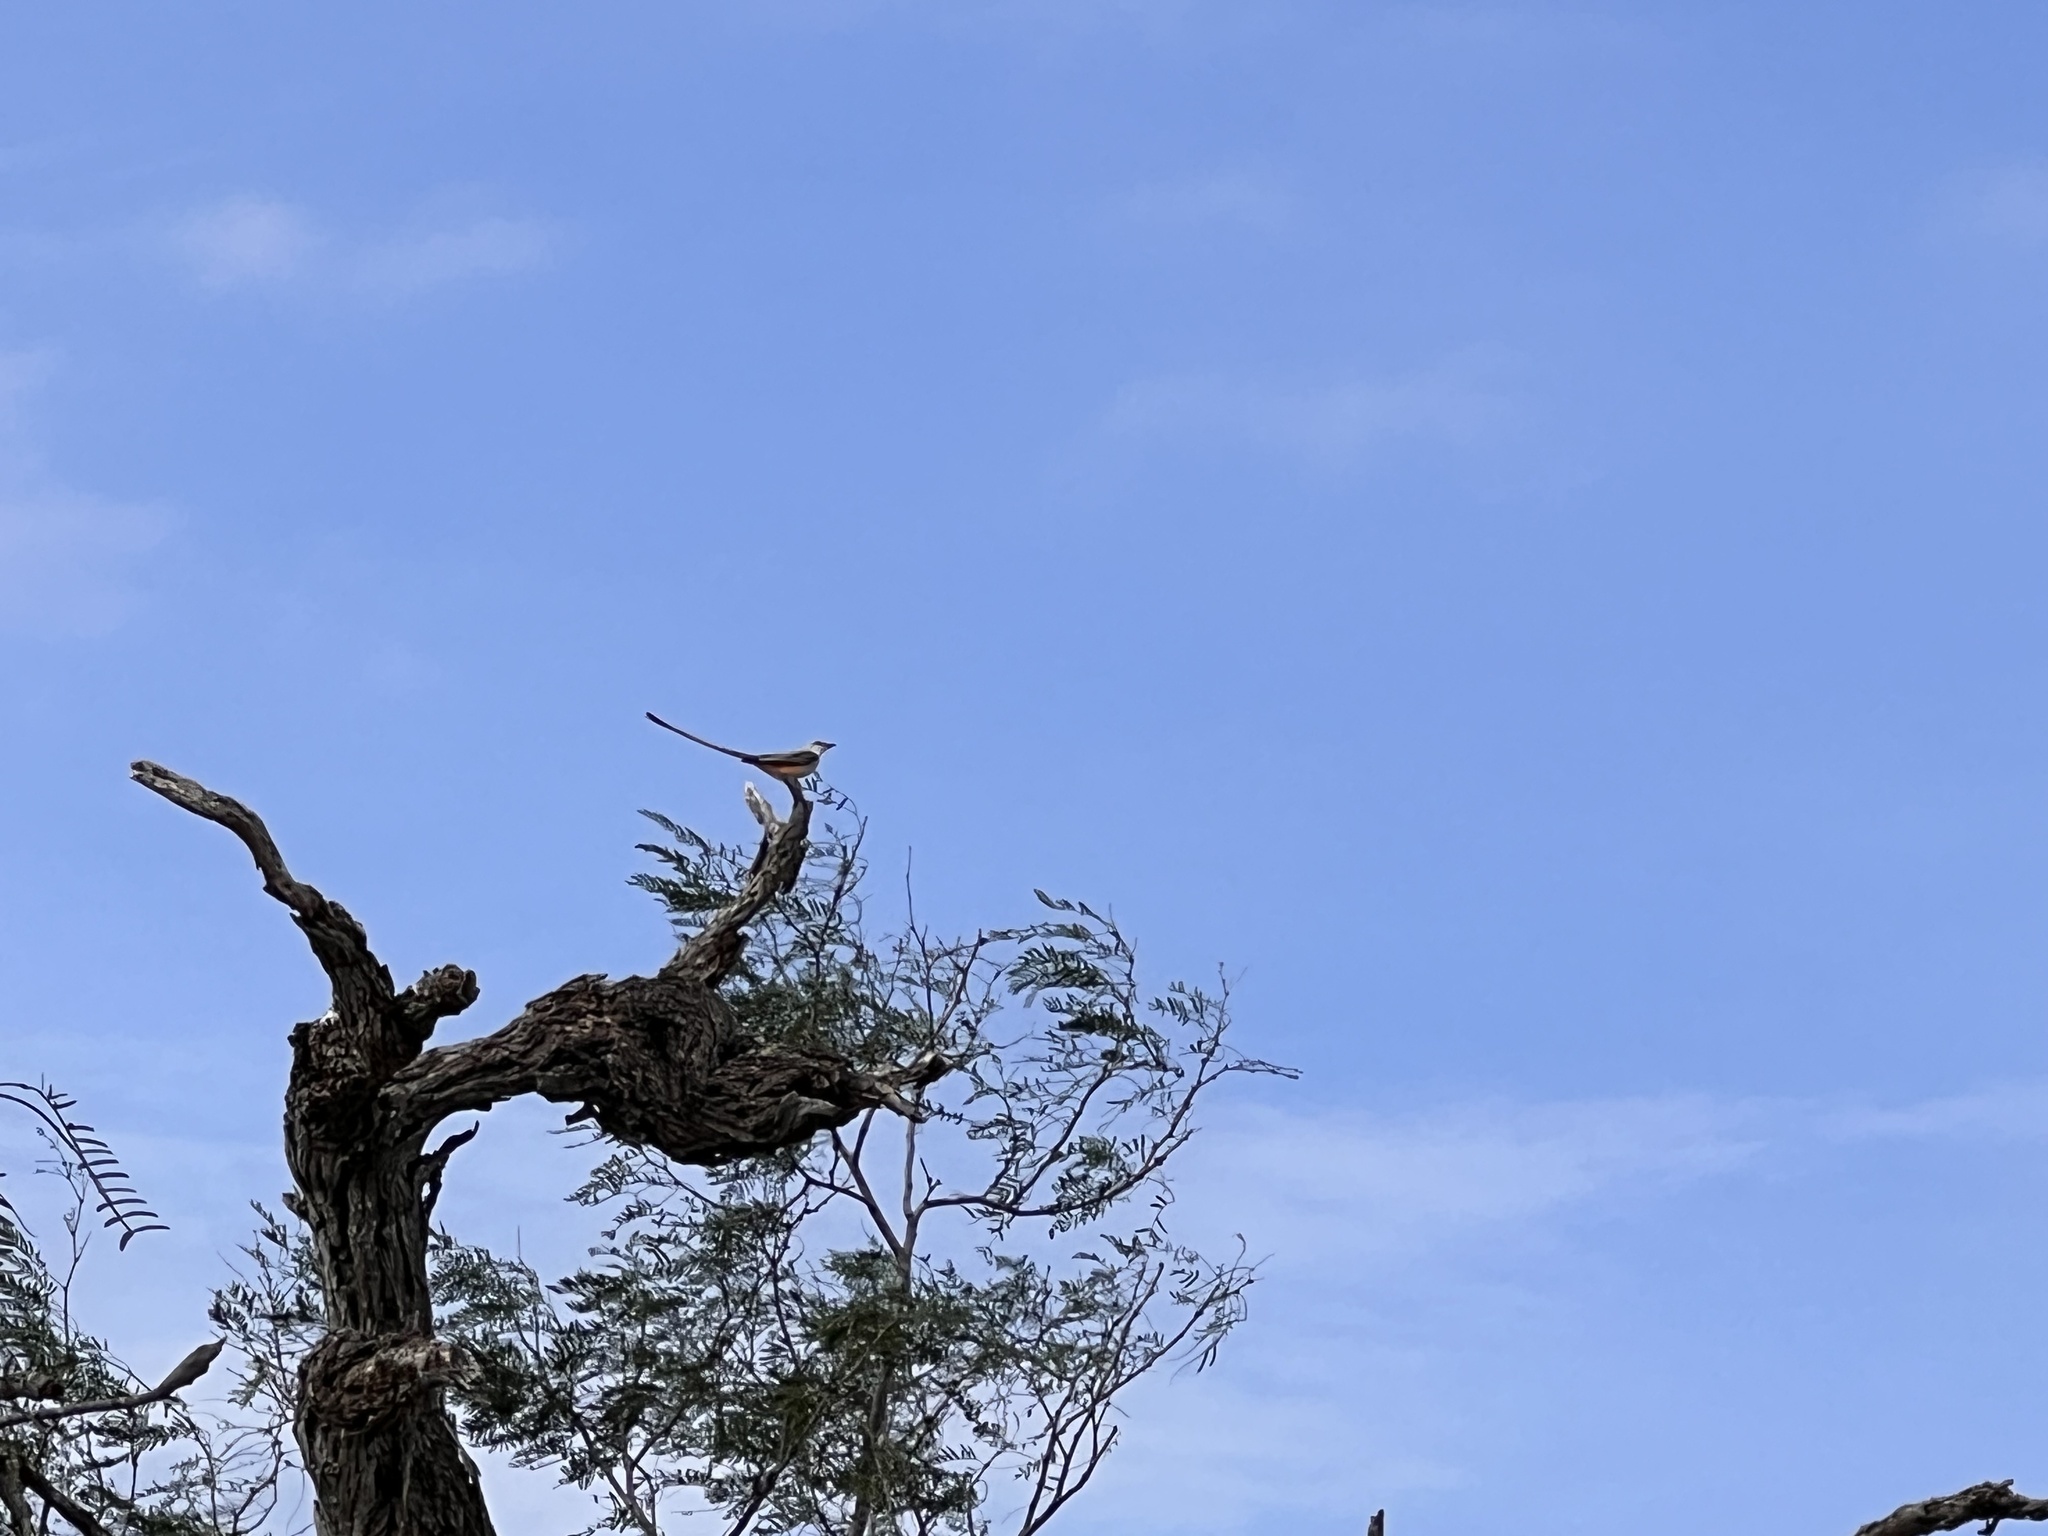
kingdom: Animalia
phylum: Chordata
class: Aves
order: Passeriformes
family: Tyrannidae
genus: Tyrannus
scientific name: Tyrannus forficatus
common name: Scissor-tailed flycatcher
